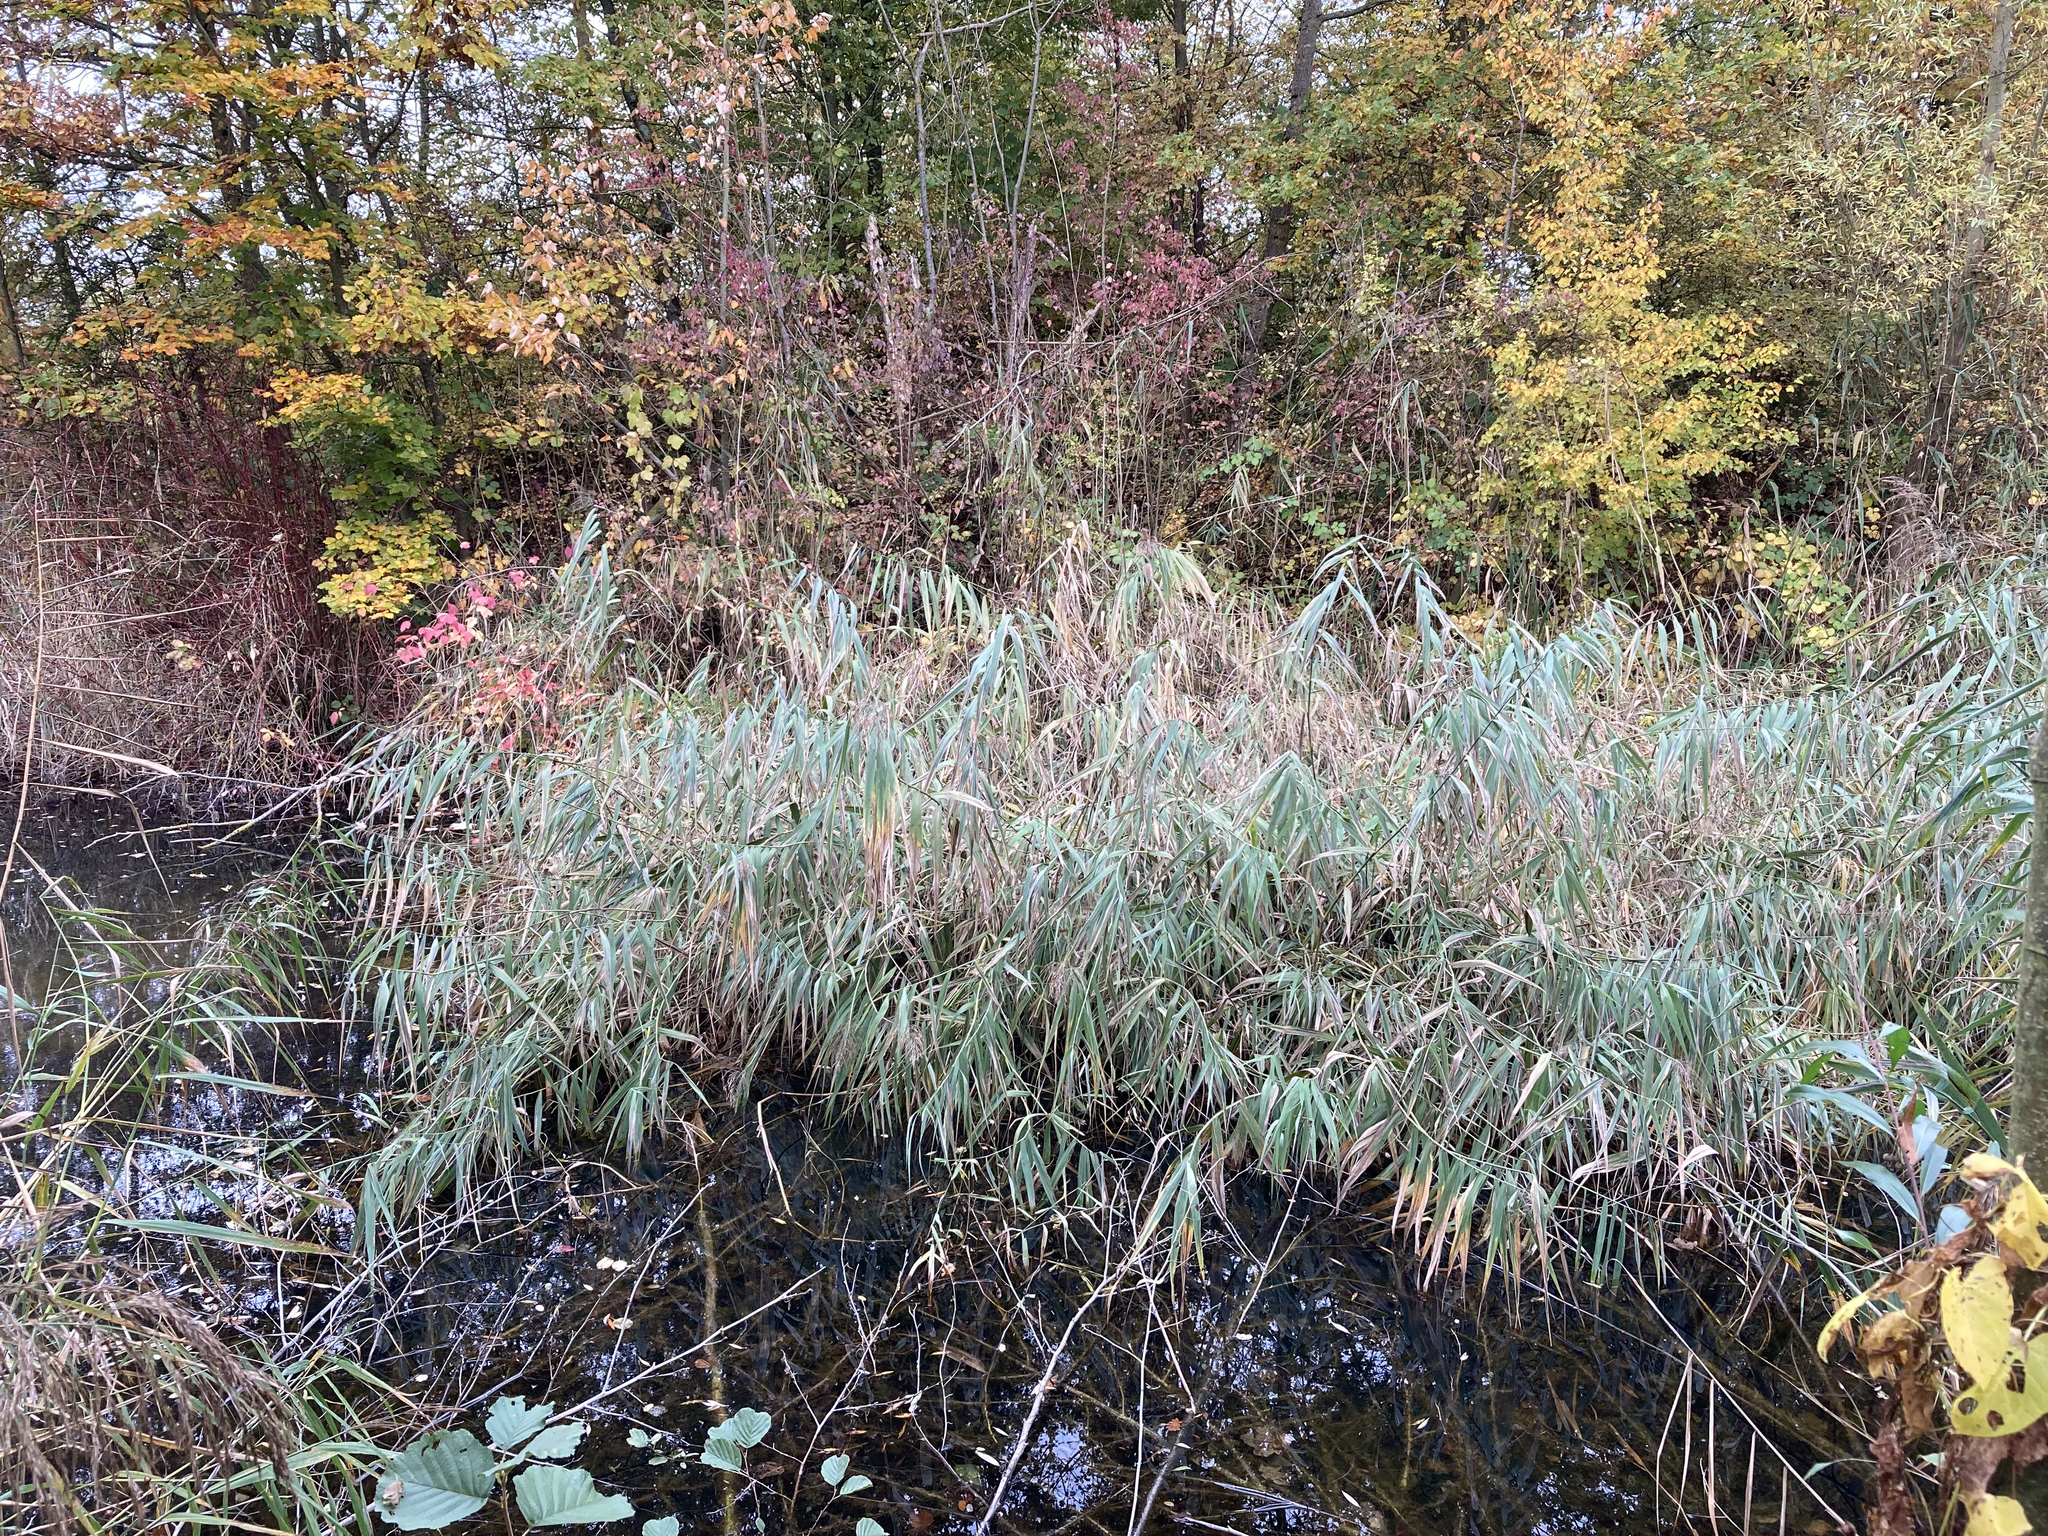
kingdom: Plantae
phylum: Tracheophyta
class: Liliopsida
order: Poales
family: Poaceae
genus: Phragmites
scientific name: Phragmites australis
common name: Common reed
